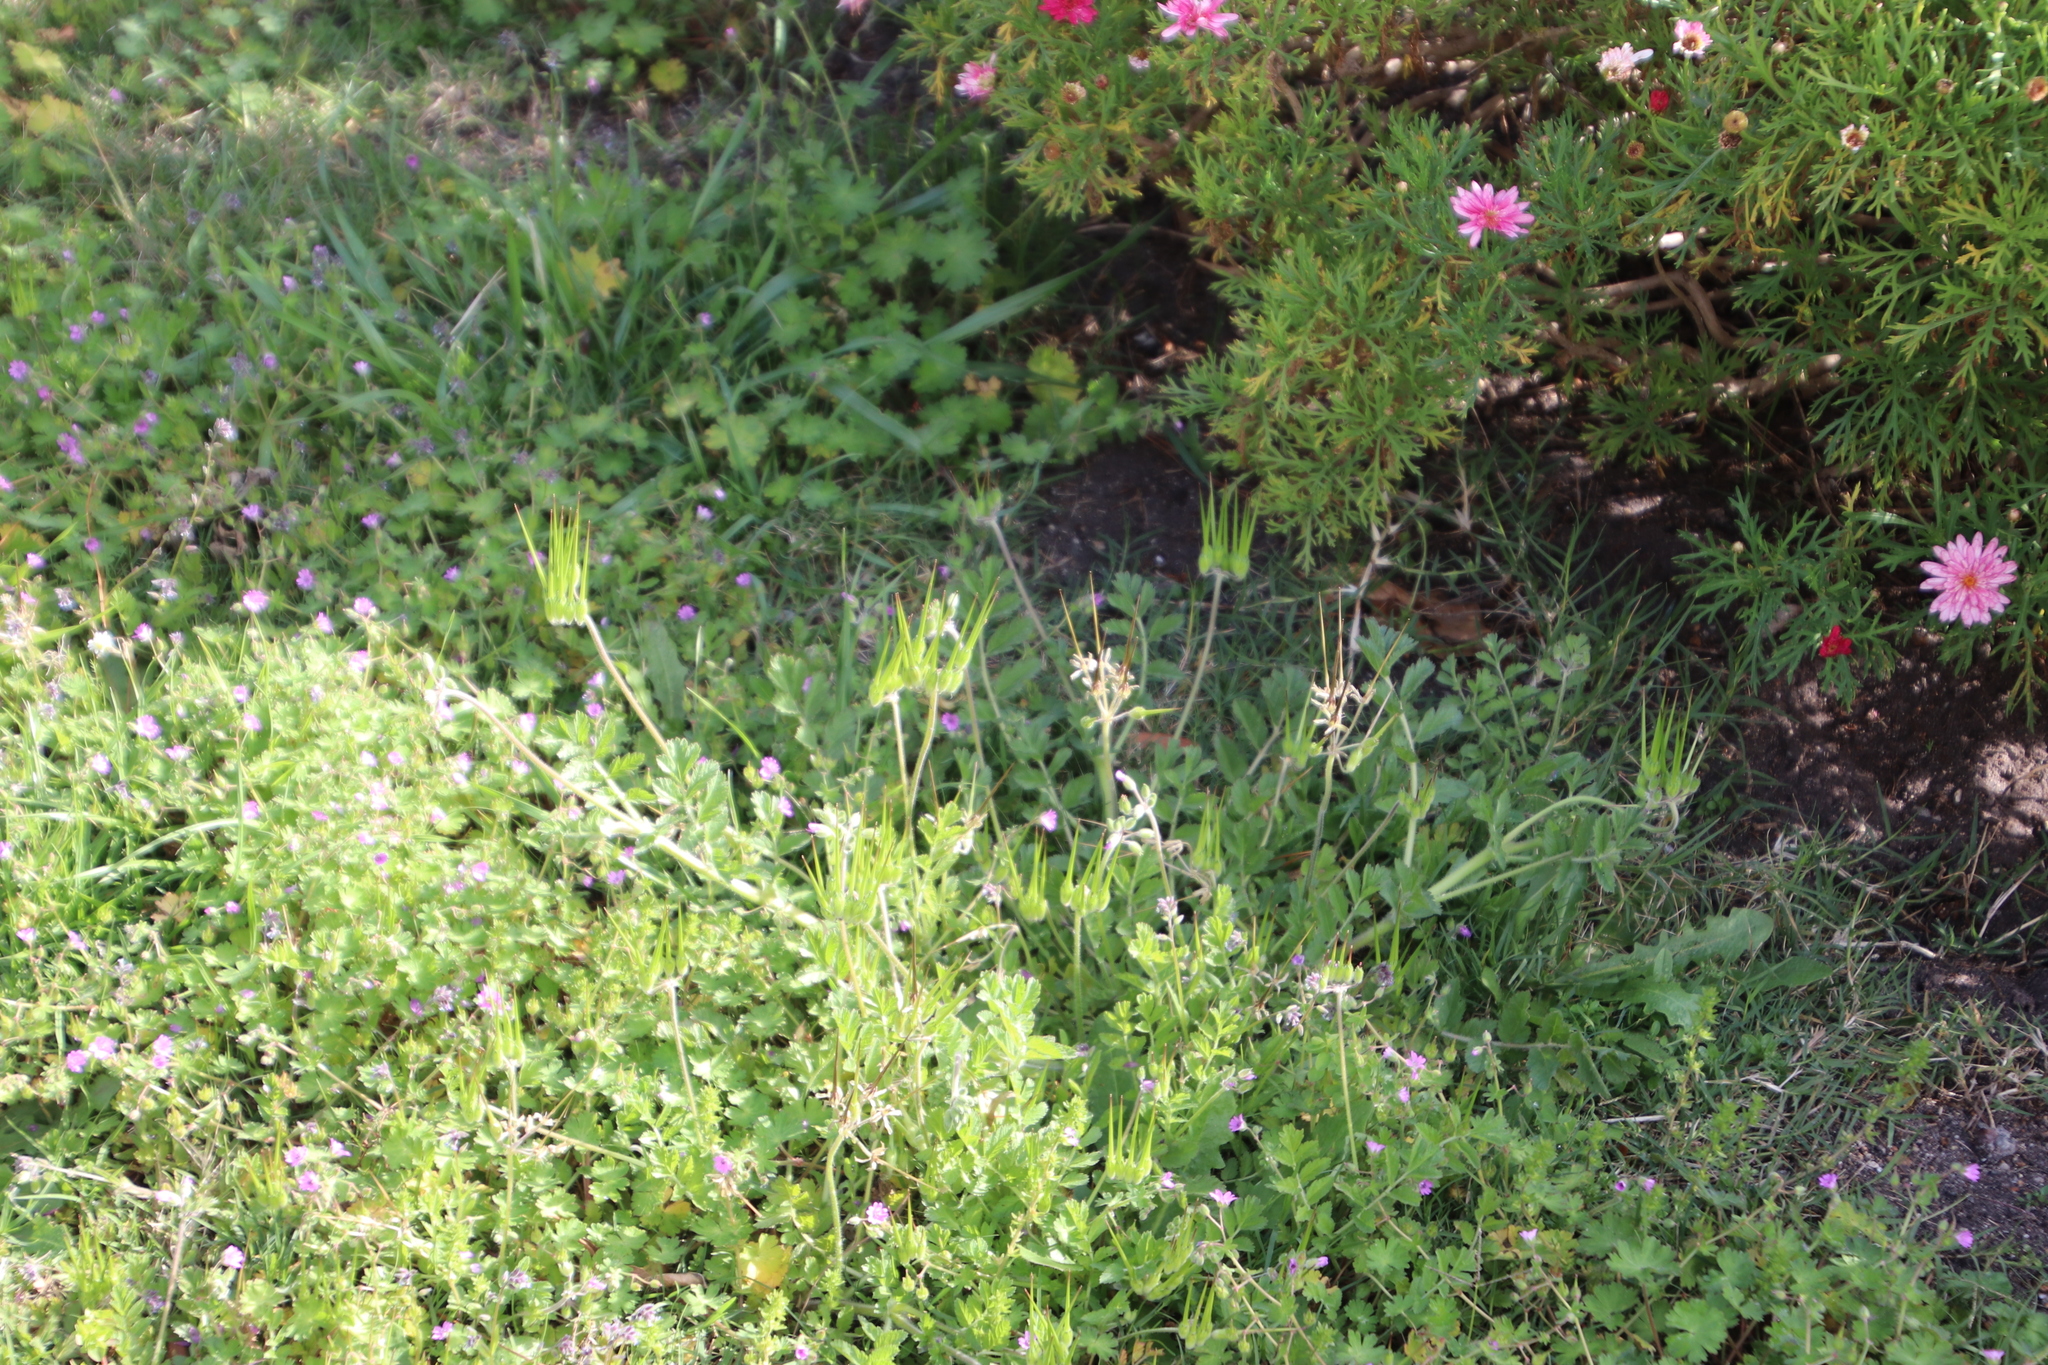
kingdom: Plantae
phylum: Tracheophyta
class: Magnoliopsida
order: Geraniales
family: Geraniaceae
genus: Geranium
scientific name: Geranium molle
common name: Dove's-foot crane's-bill
